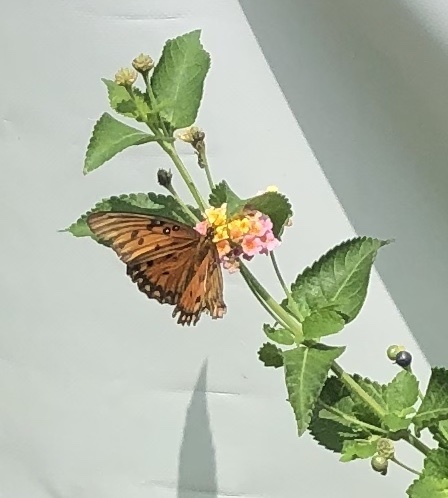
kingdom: Animalia
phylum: Arthropoda
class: Insecta
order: Lepidoptera
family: Nymphalidae
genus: Dione
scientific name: Dione vanillae
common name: Gulf fritillary
